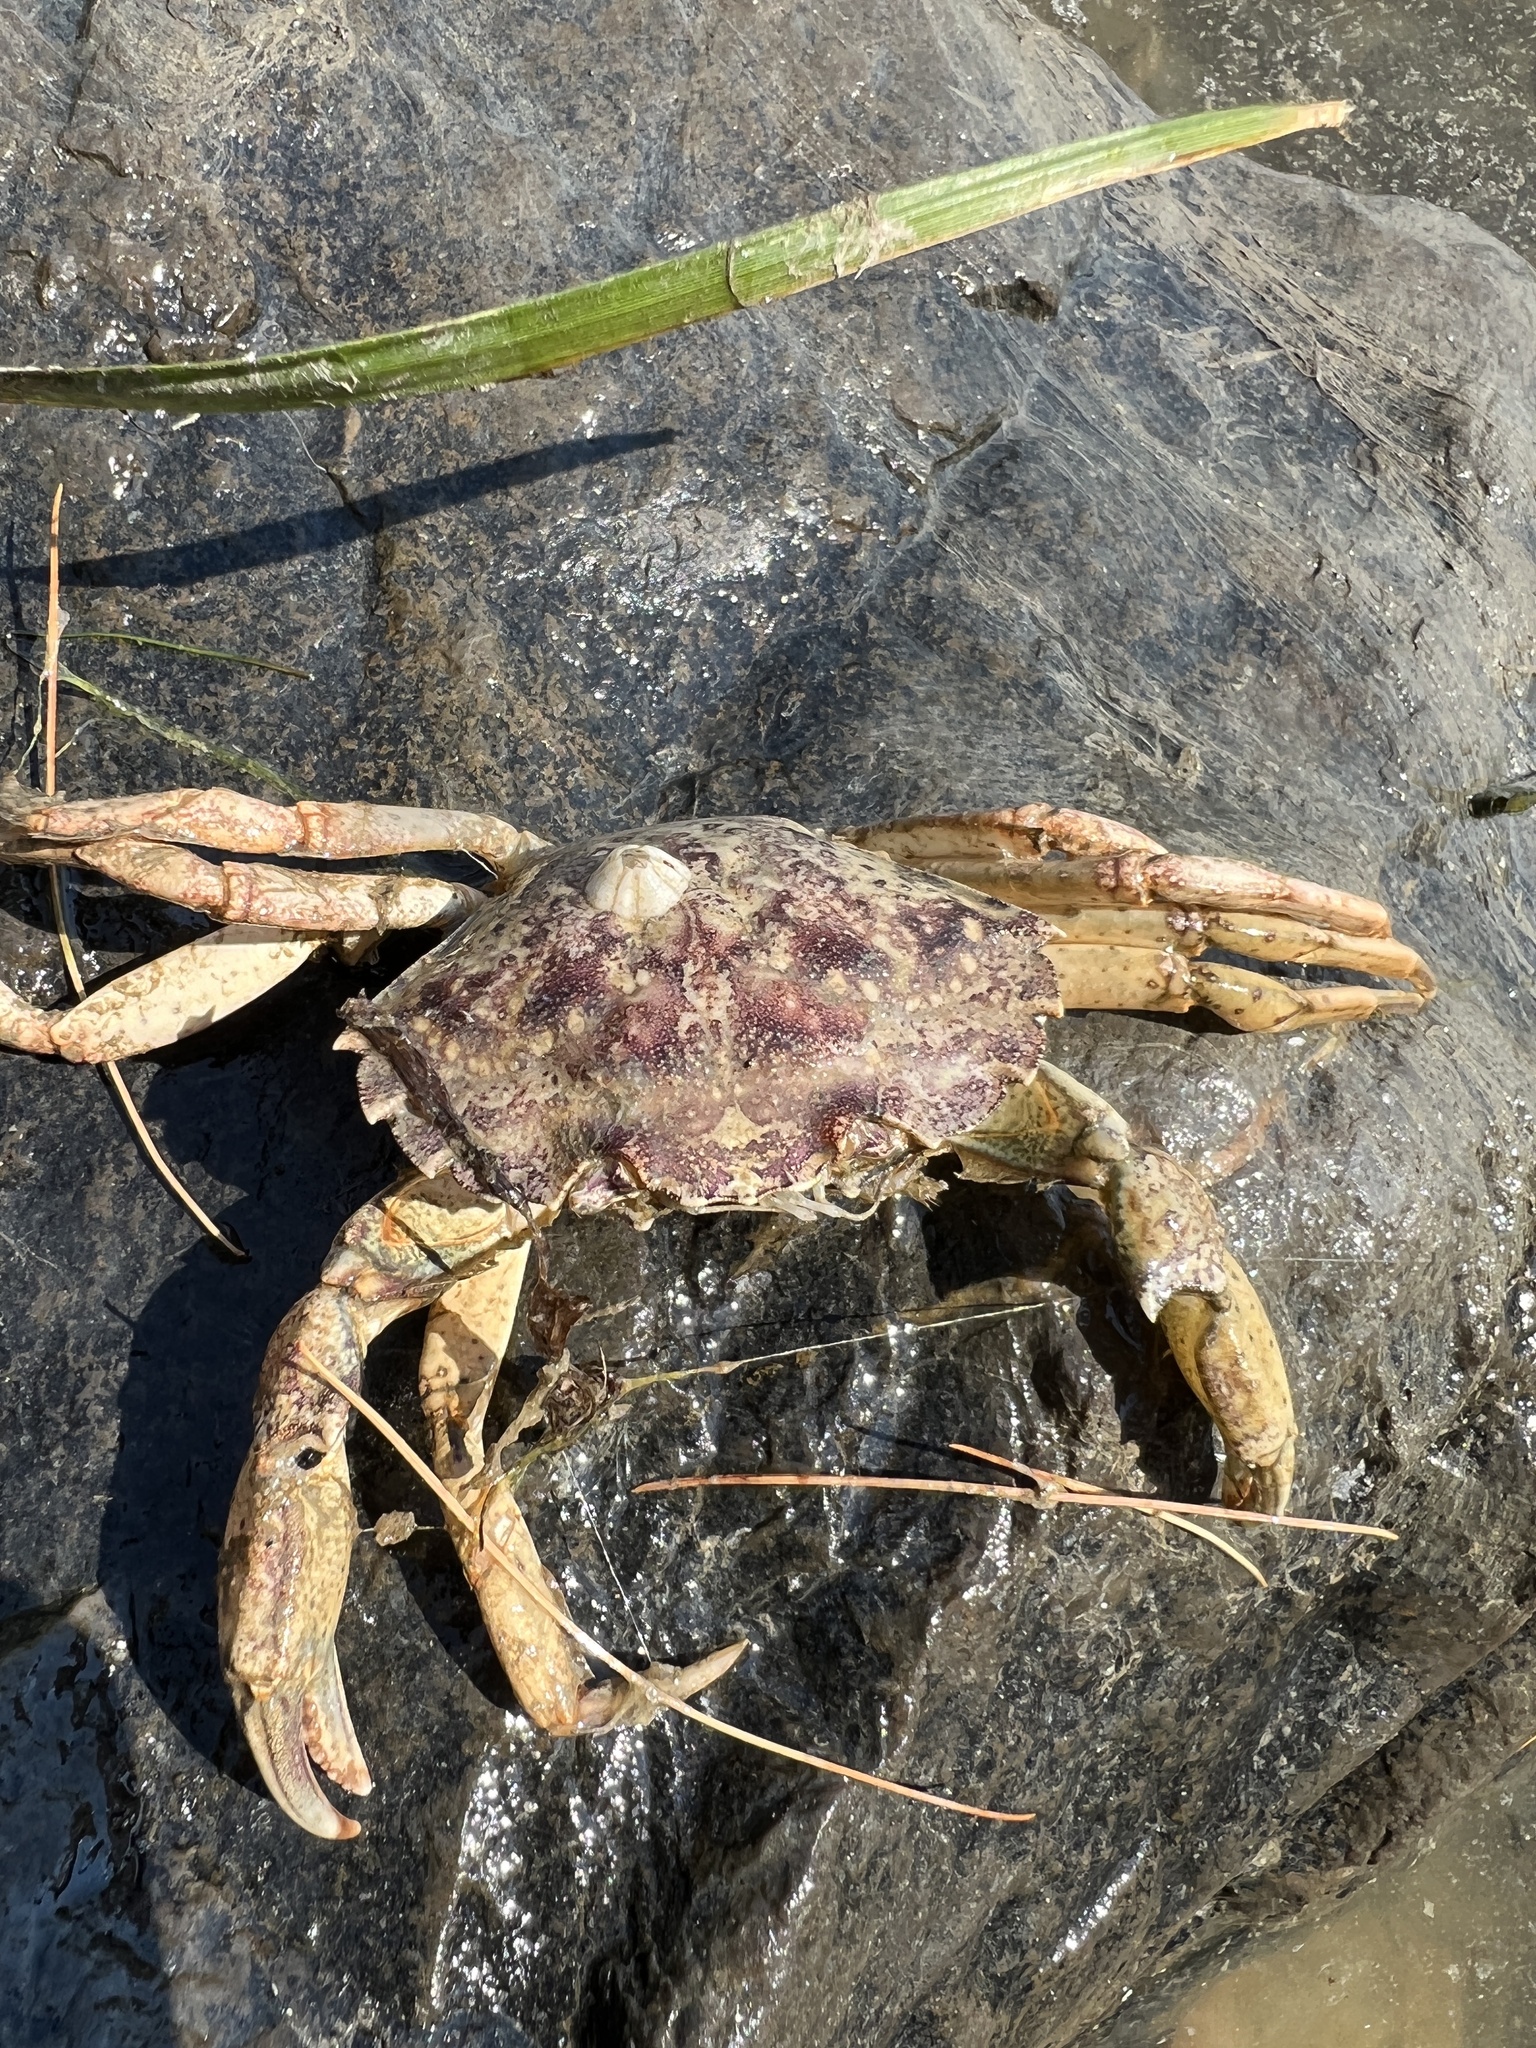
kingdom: Animalia
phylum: Arthropoda
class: Malacostraca
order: Decapoda
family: Carcinidae
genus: Carcinus
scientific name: Carcinus maenas
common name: European green crab
